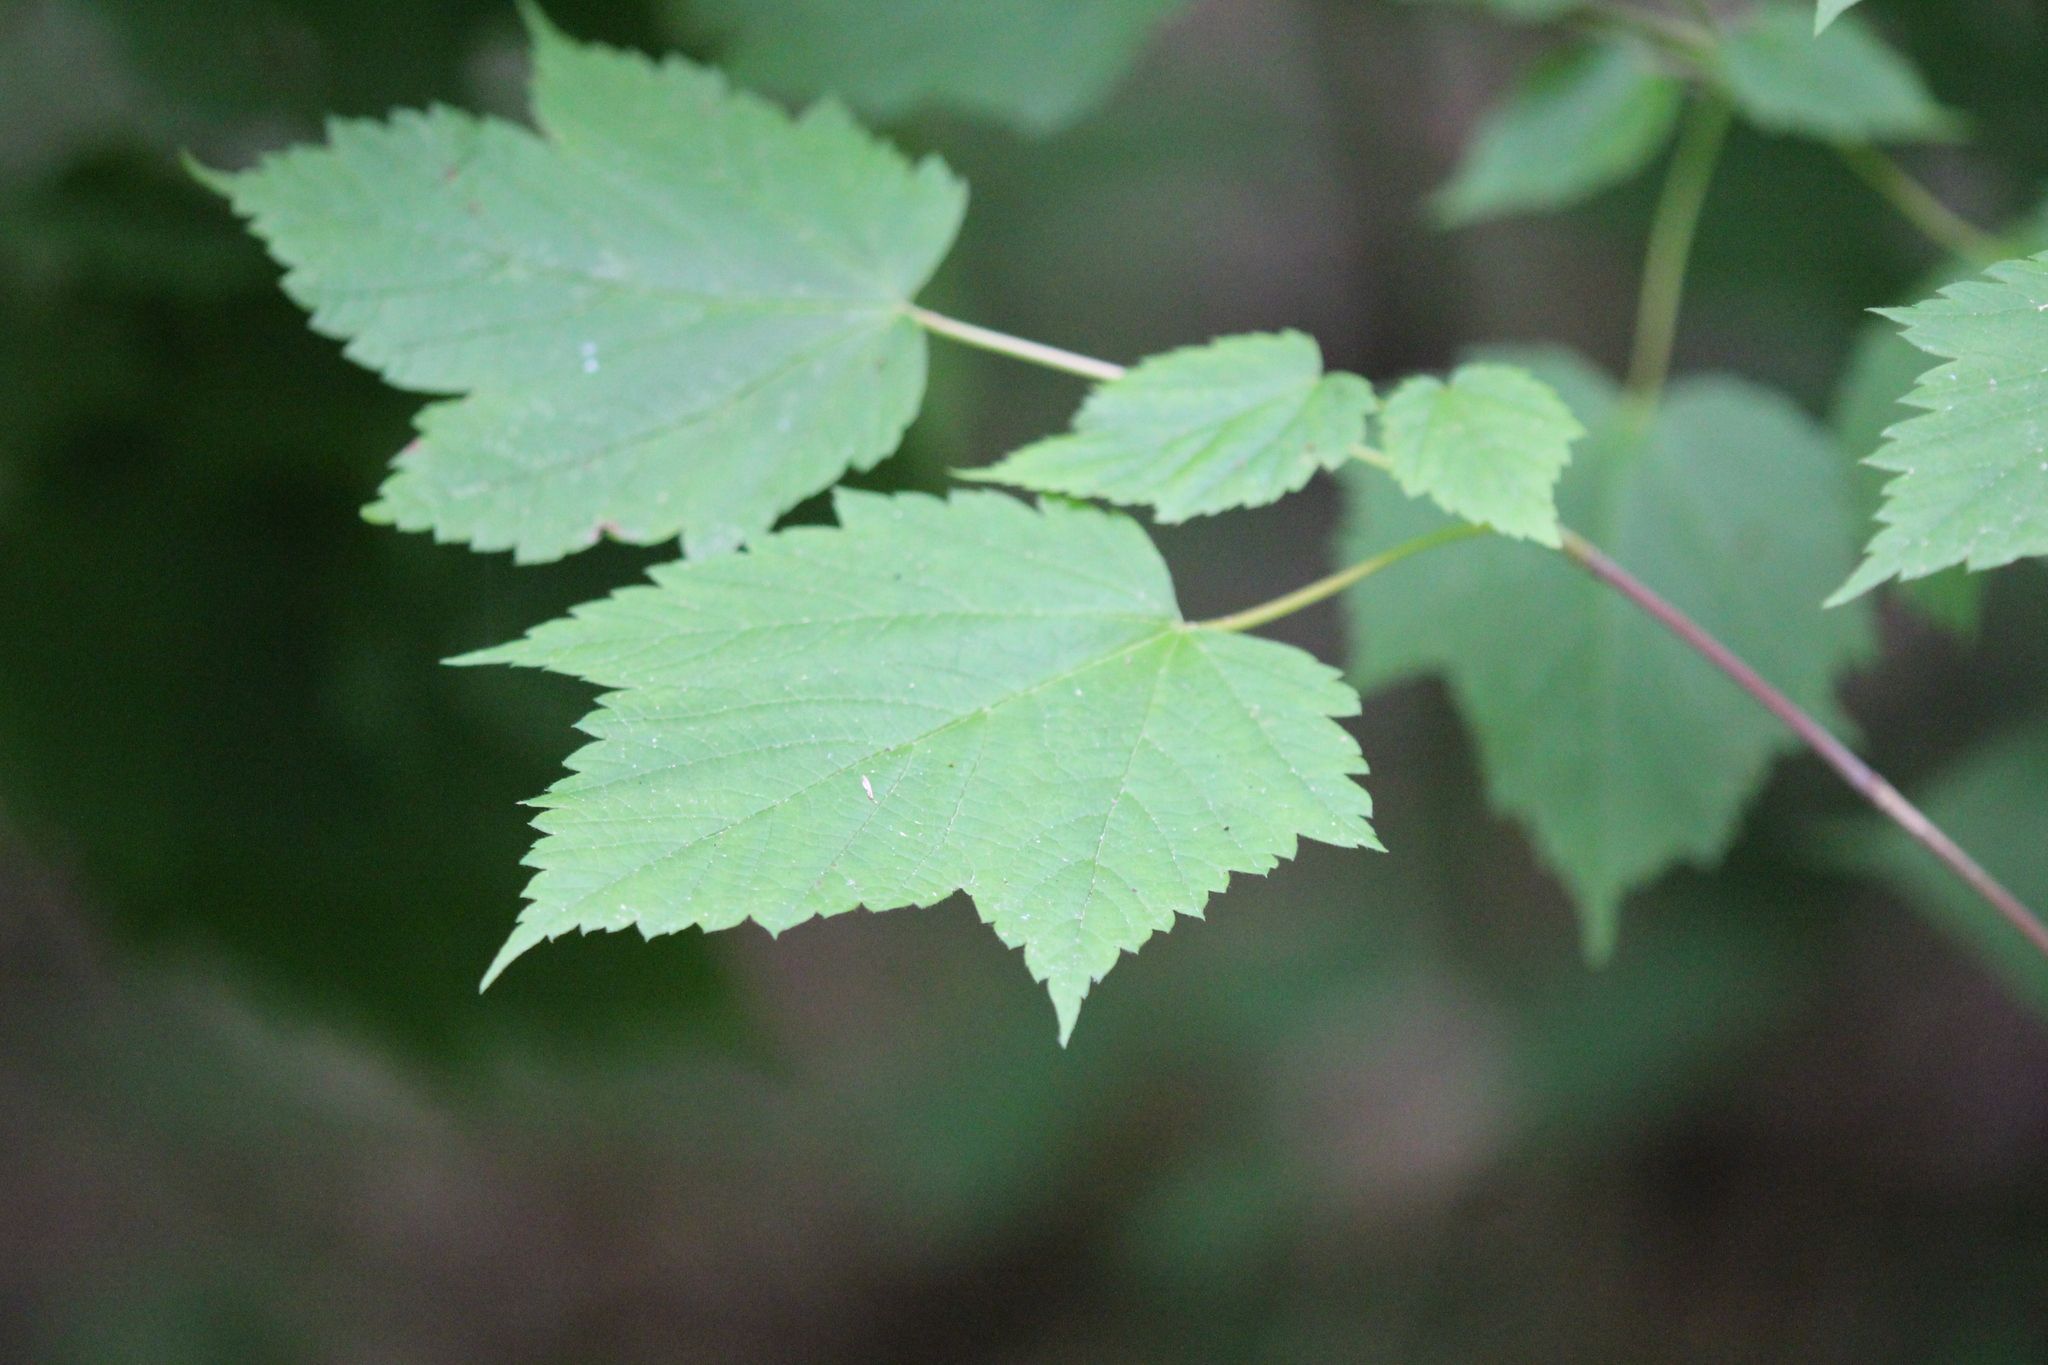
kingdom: Plantae
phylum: Tracheophyta
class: Magnoliopsida
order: Sapindales
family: Sapindaceae
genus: Acer
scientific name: Acer spicatum
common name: Mountain maple
